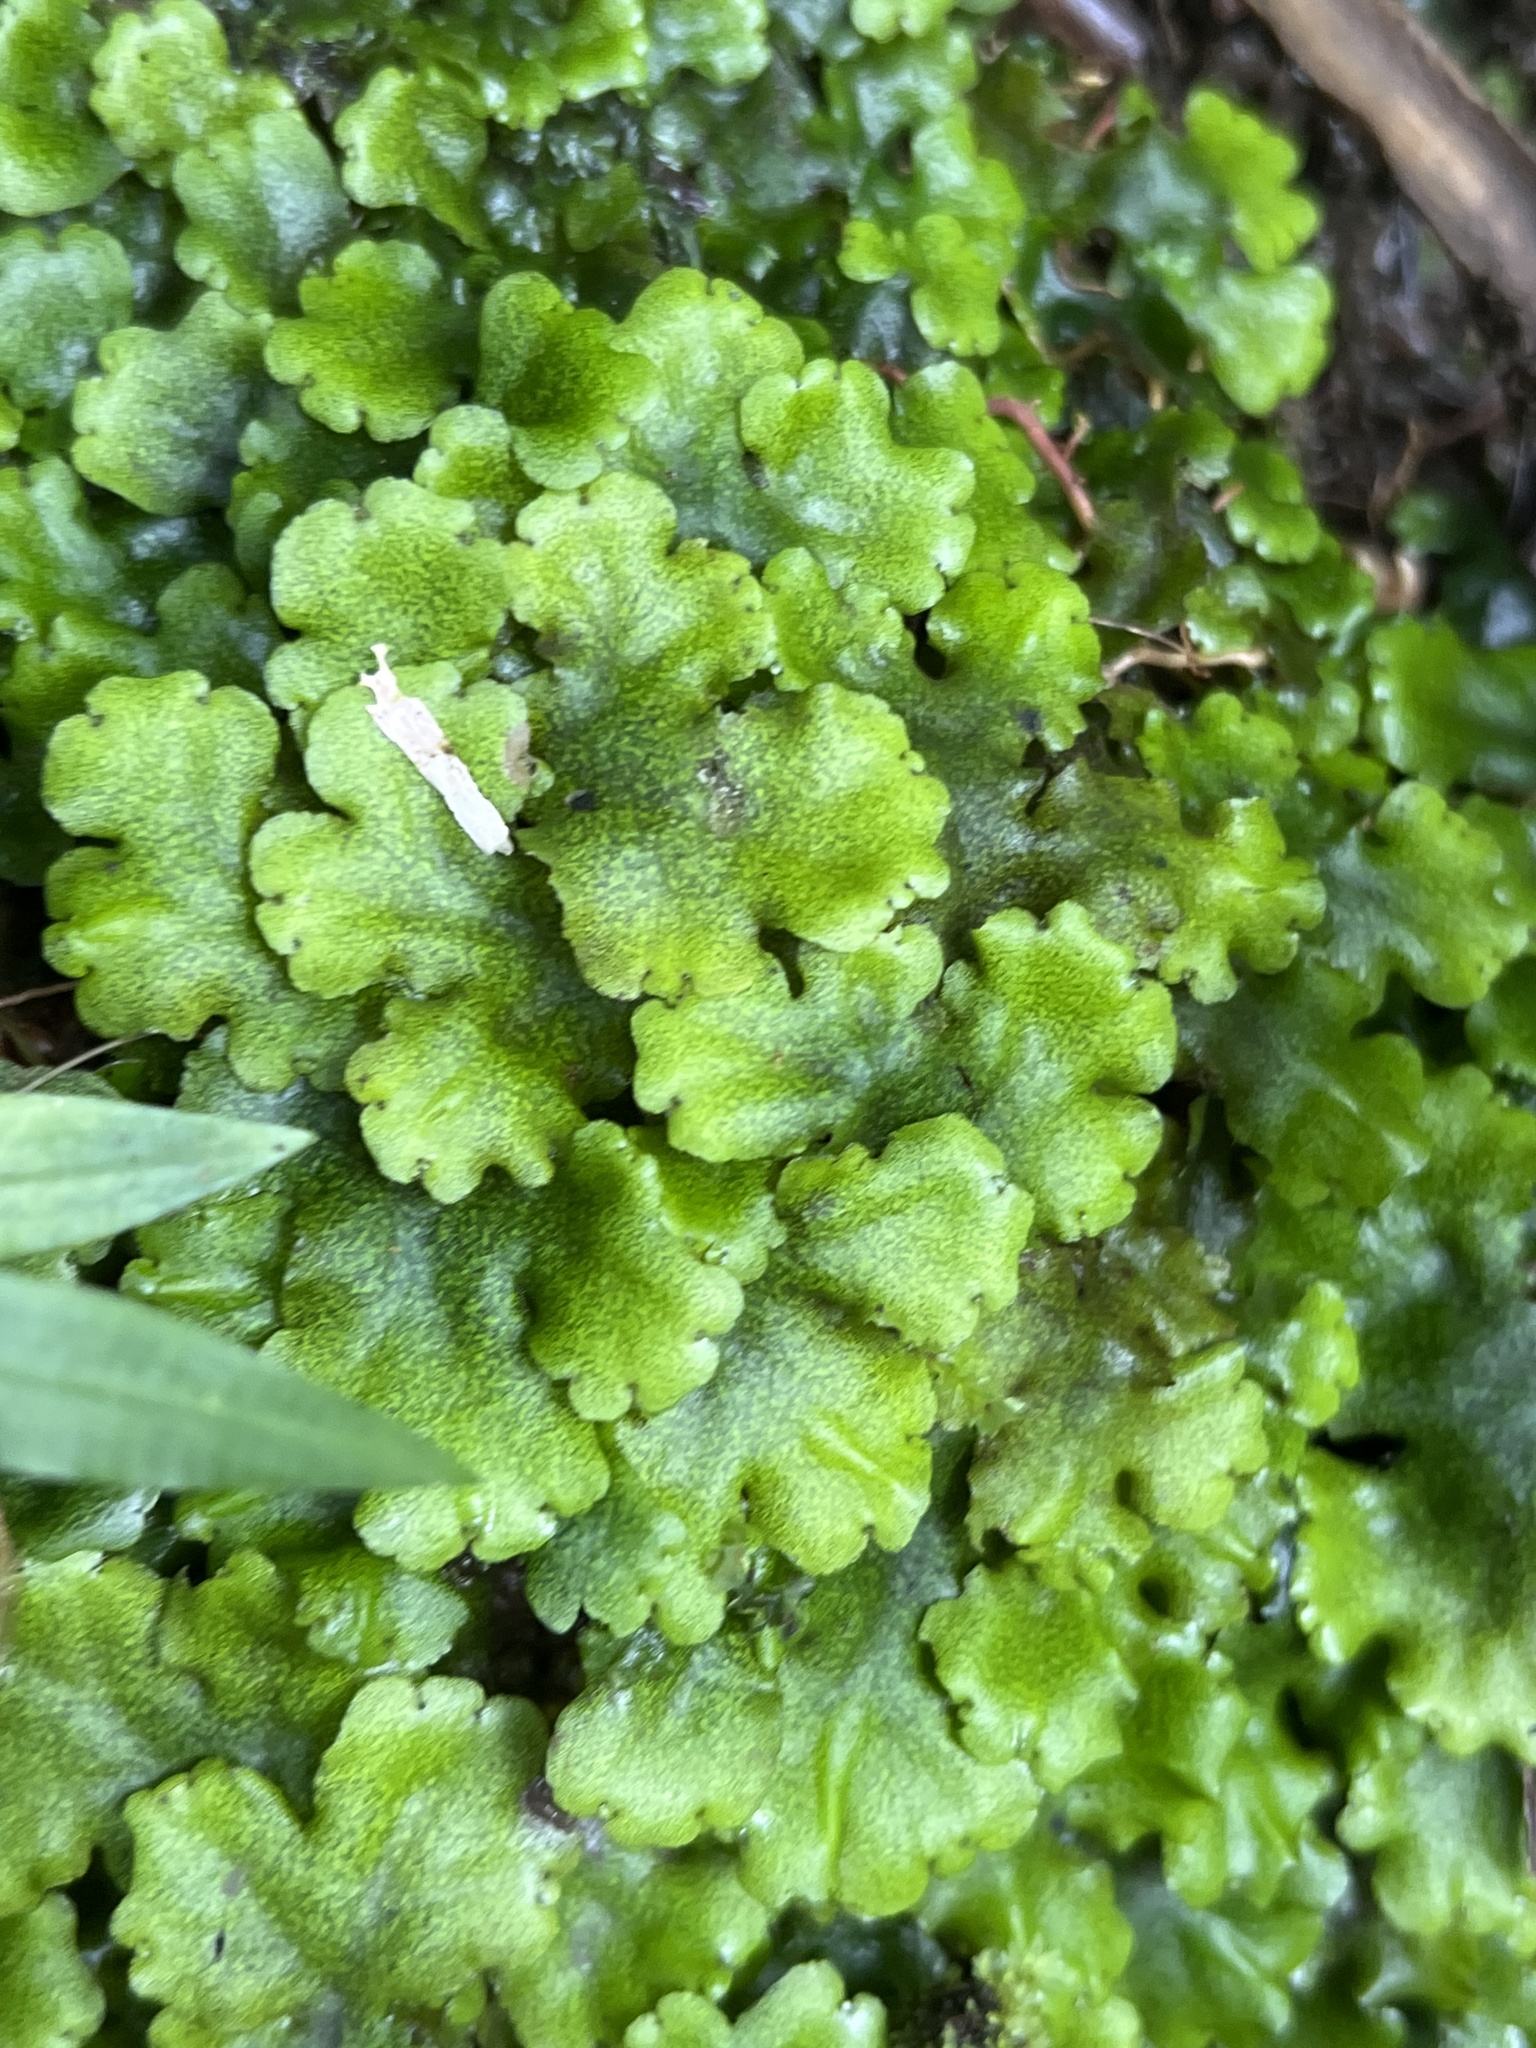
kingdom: Plantae
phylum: Marchantiophyta
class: Marchantiopsida
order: Marchantiales
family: Monocleaceae
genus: Monoclea
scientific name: Monoclea gottschei
